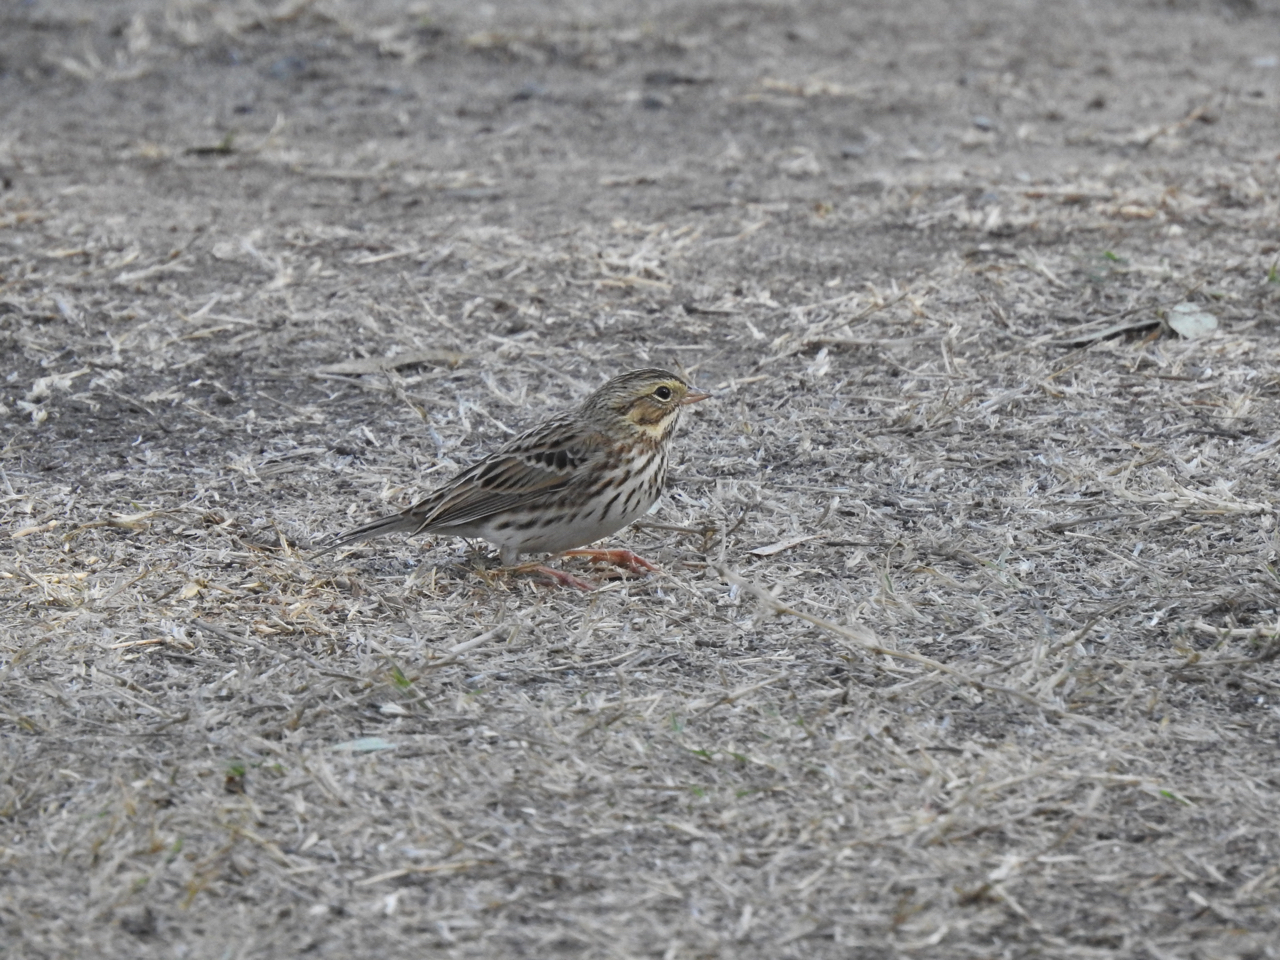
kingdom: Animalia
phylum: Chordata
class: Aves
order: Passeriformes
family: Passerellidae
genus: Passerculus
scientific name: Passerculus sandwichensis
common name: Savannah sparrow
